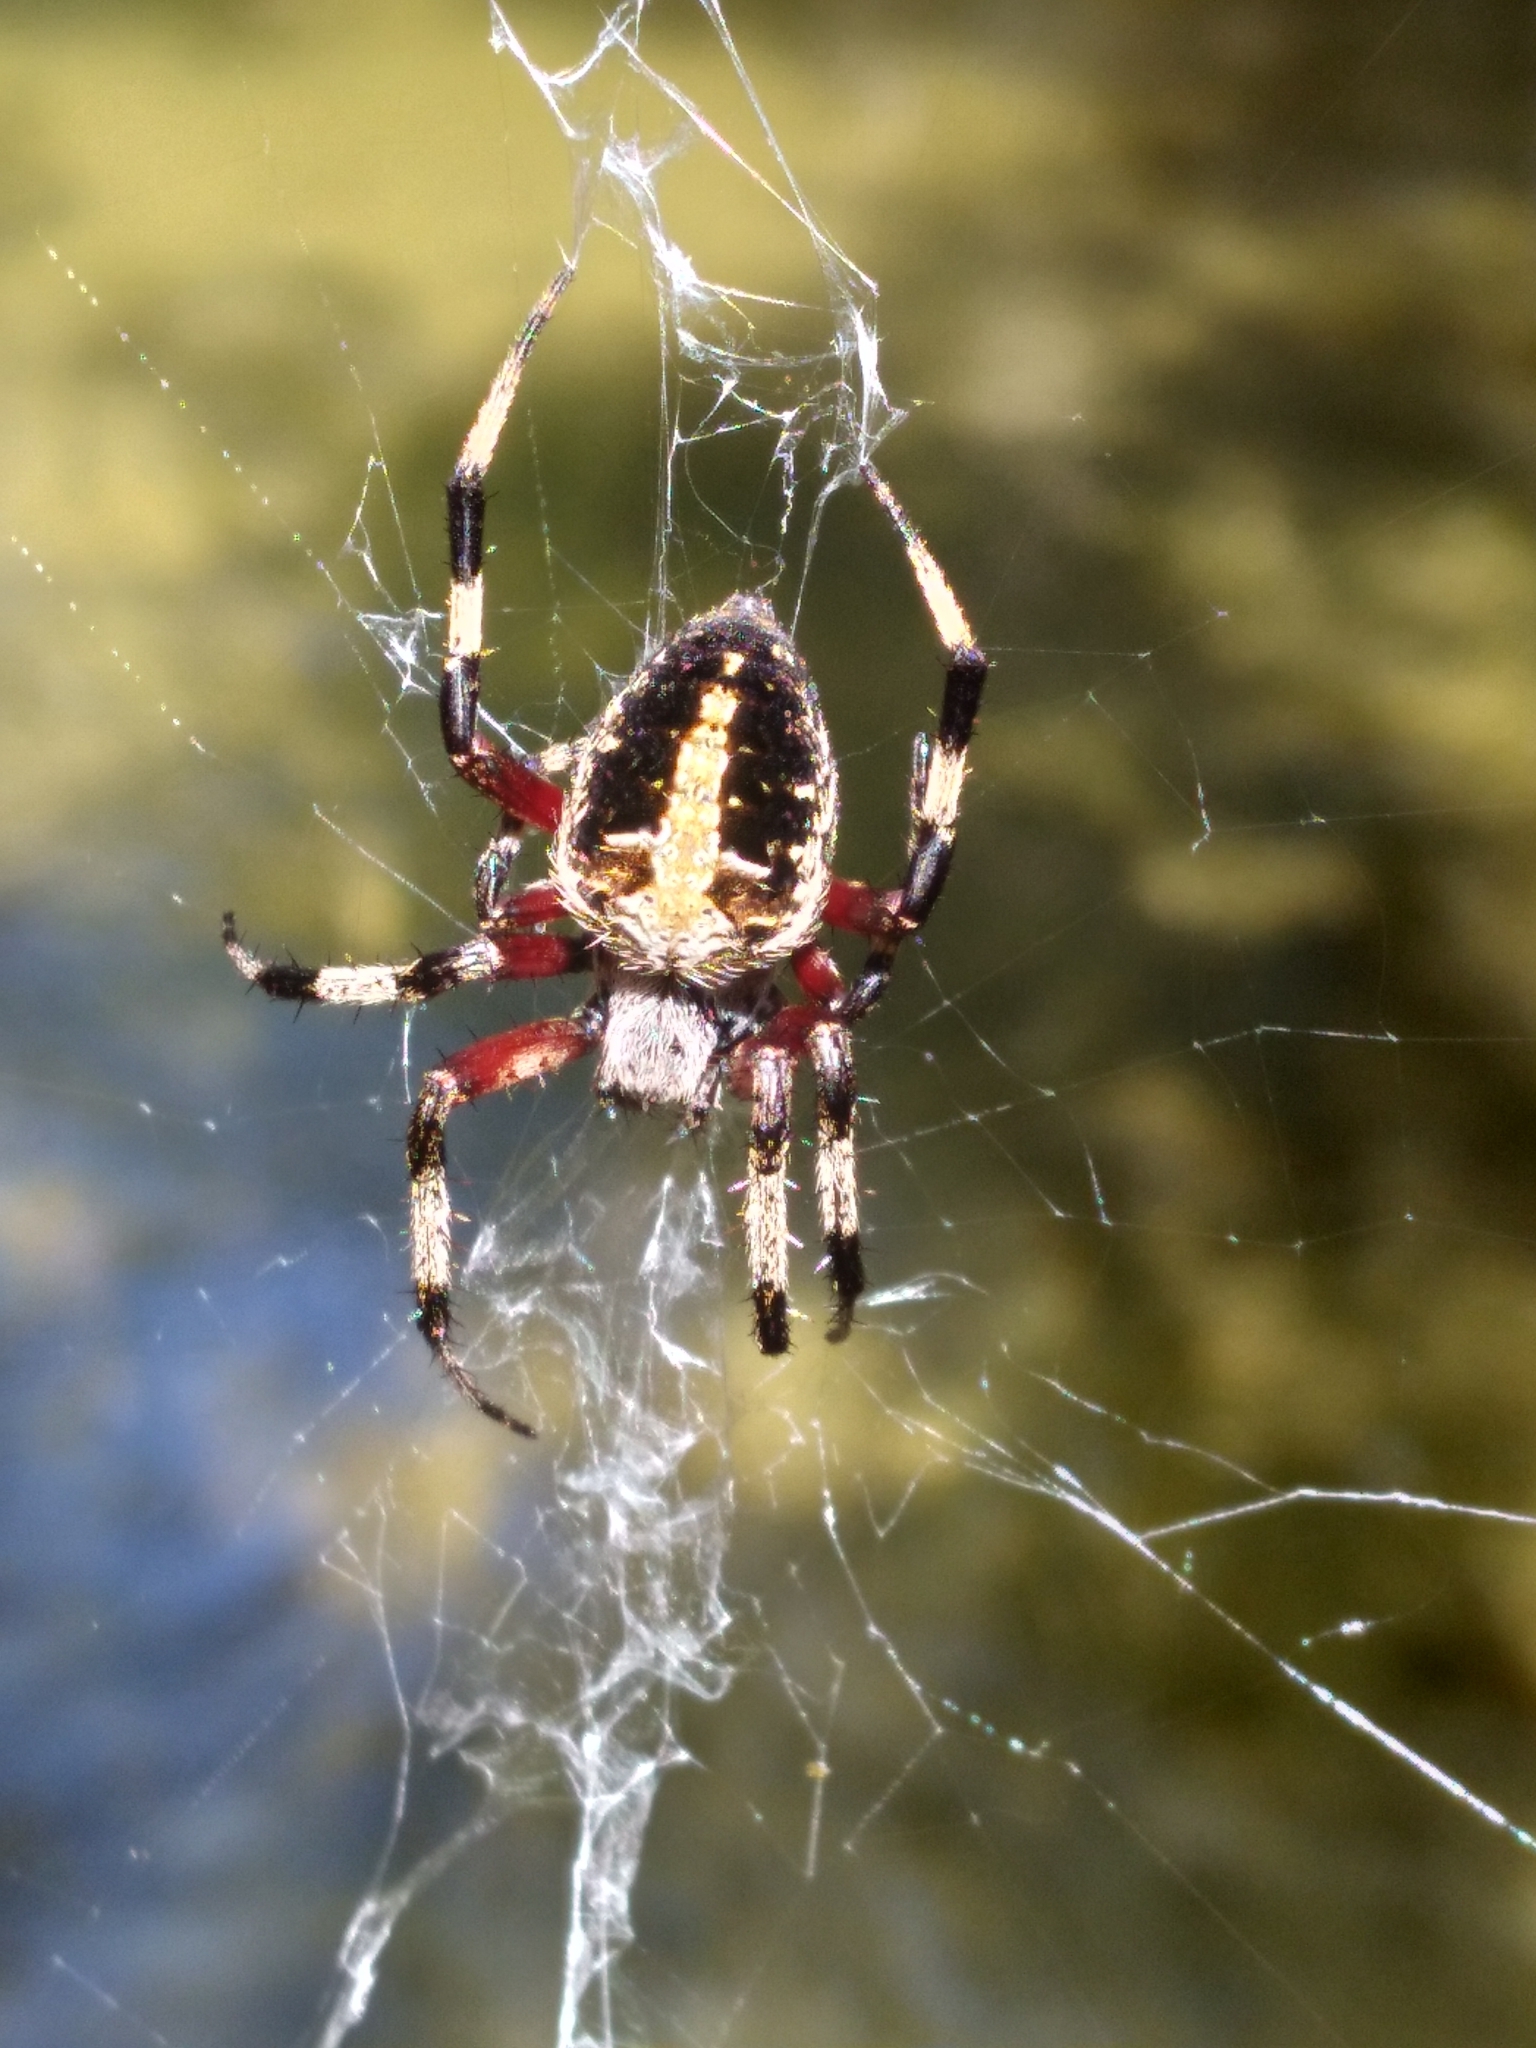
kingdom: Animalia
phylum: Arthropoda
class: Arachnida
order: Araneae
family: Araneidae
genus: Neoscona
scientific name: Neoscona domiciliorum
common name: Red-femured spotted orbweaver
